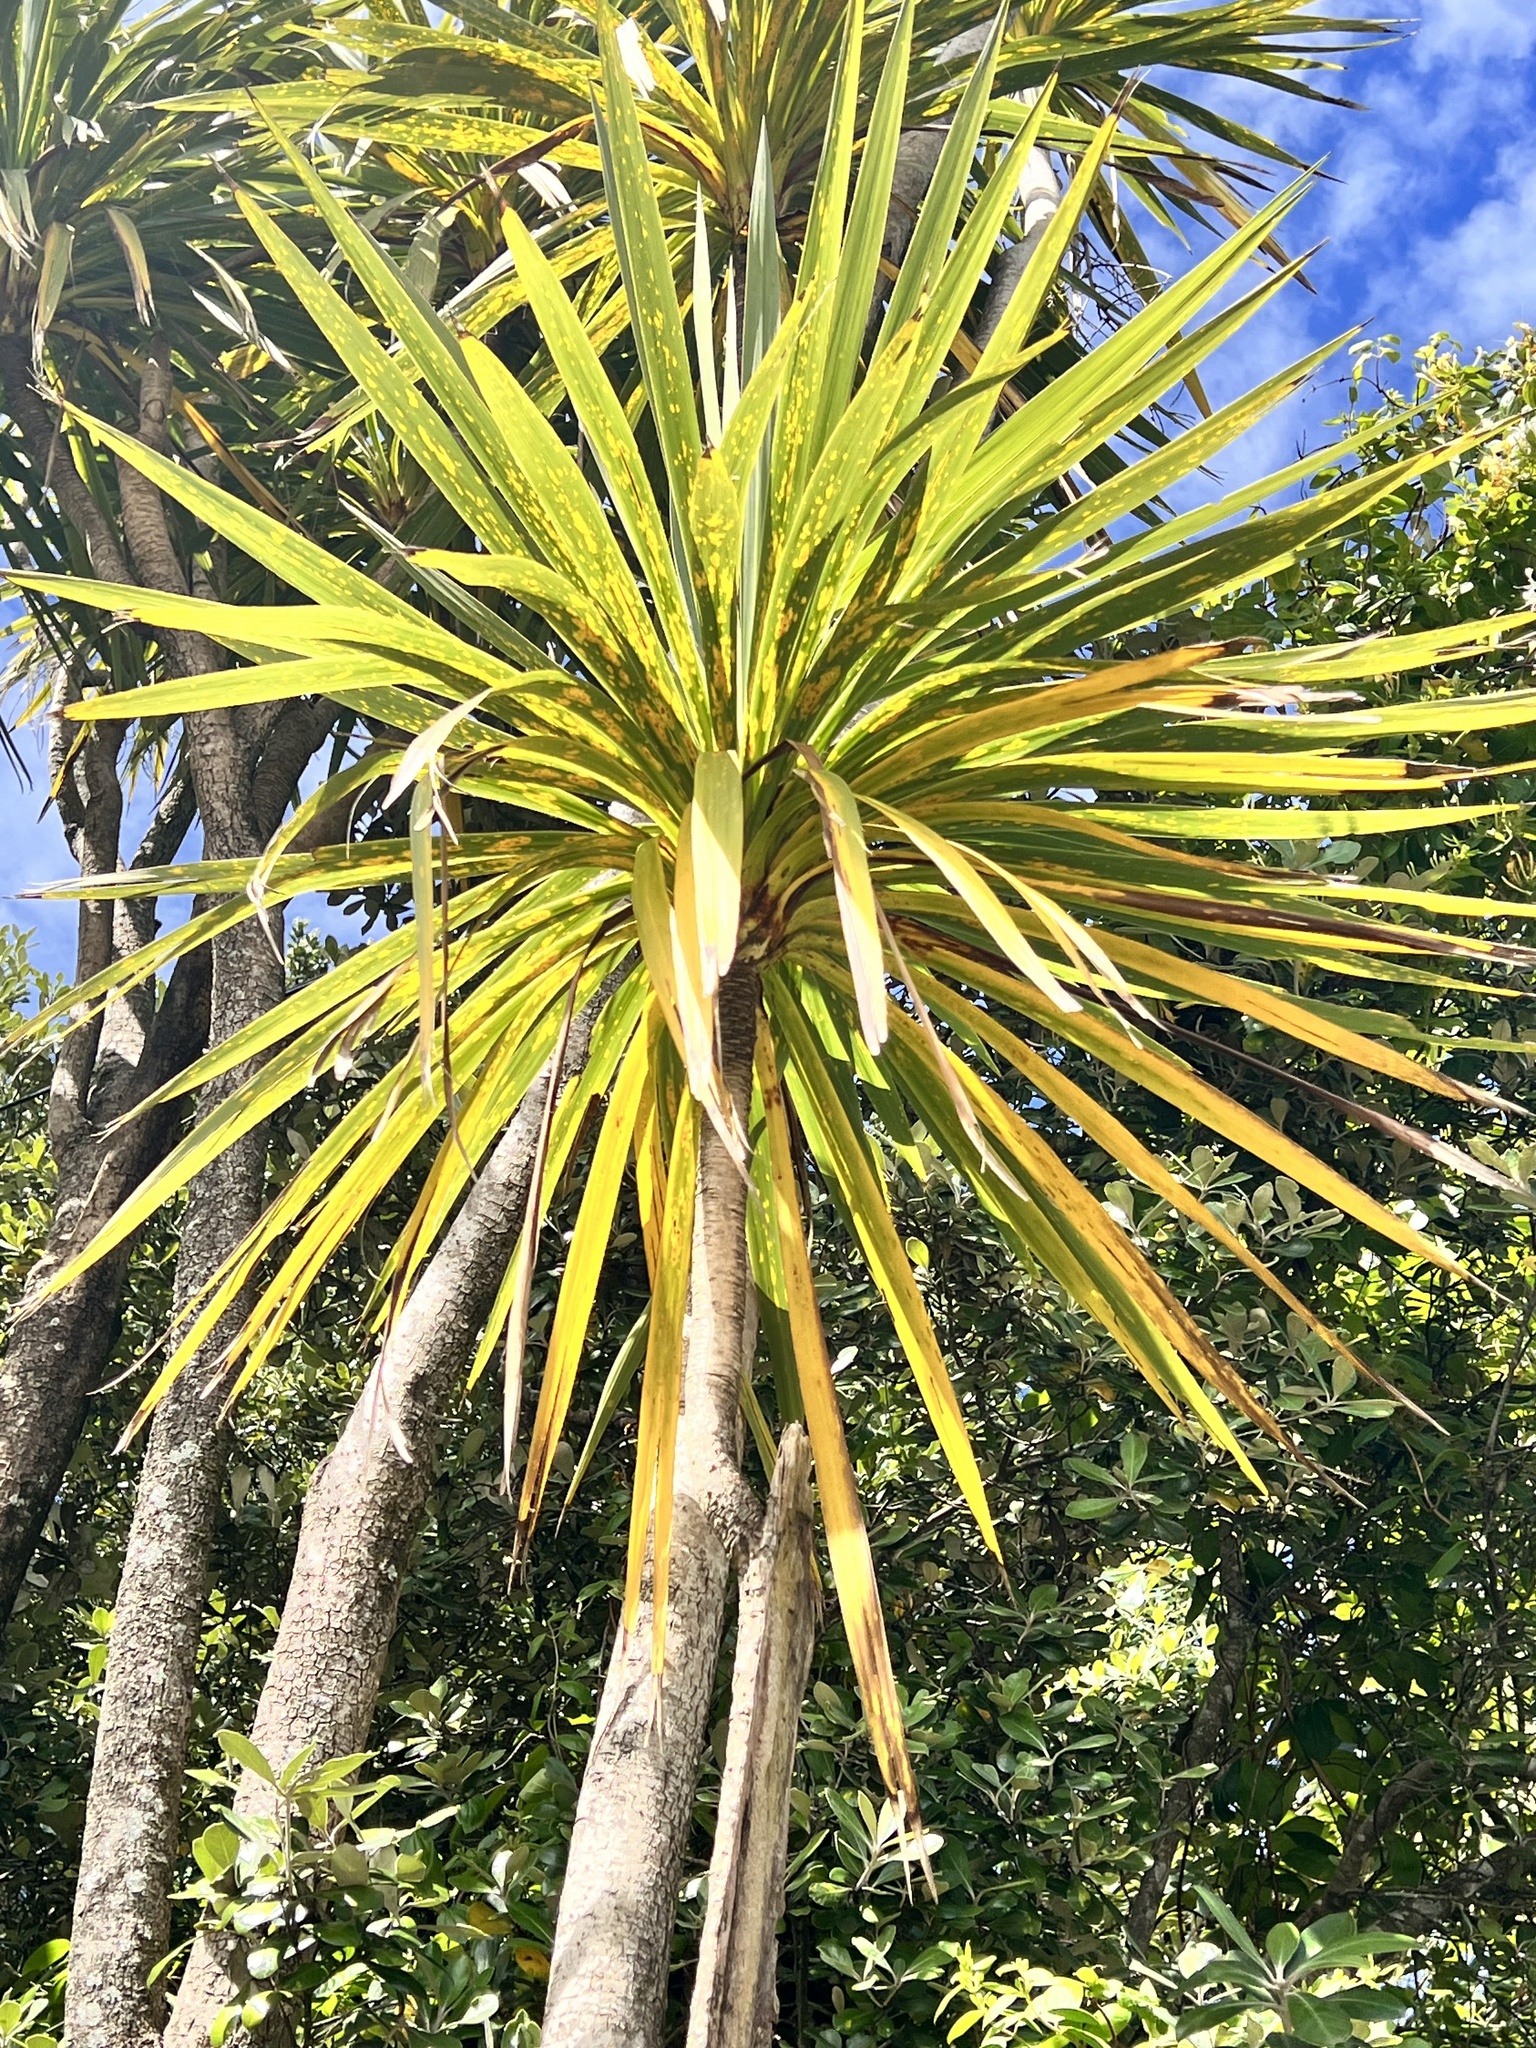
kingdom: Plantae
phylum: Tracheophyta
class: Liliopsida
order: Asparagales
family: Asparagaceae
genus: Cordyline
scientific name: Cordyline australis
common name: Cabbage-palm
